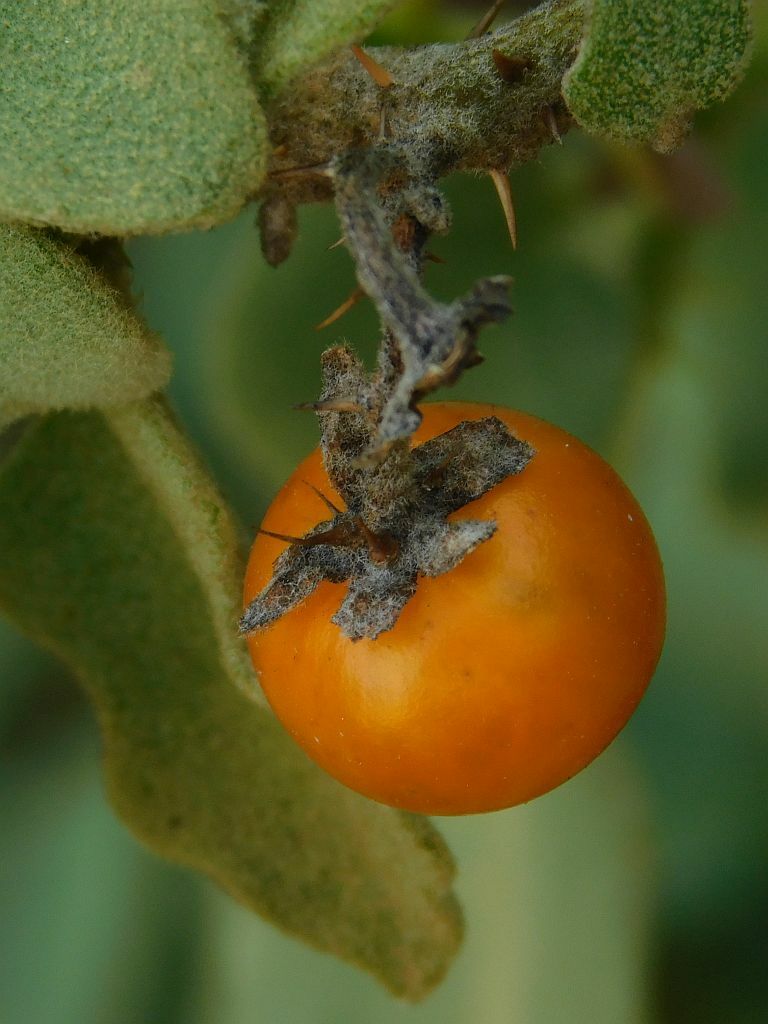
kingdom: Plantae
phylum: Tracheophyta
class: Magnoliopsida
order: Solanales
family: Solanaceae
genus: Solanum
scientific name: Solanum tomentosum
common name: Wild aubergine
